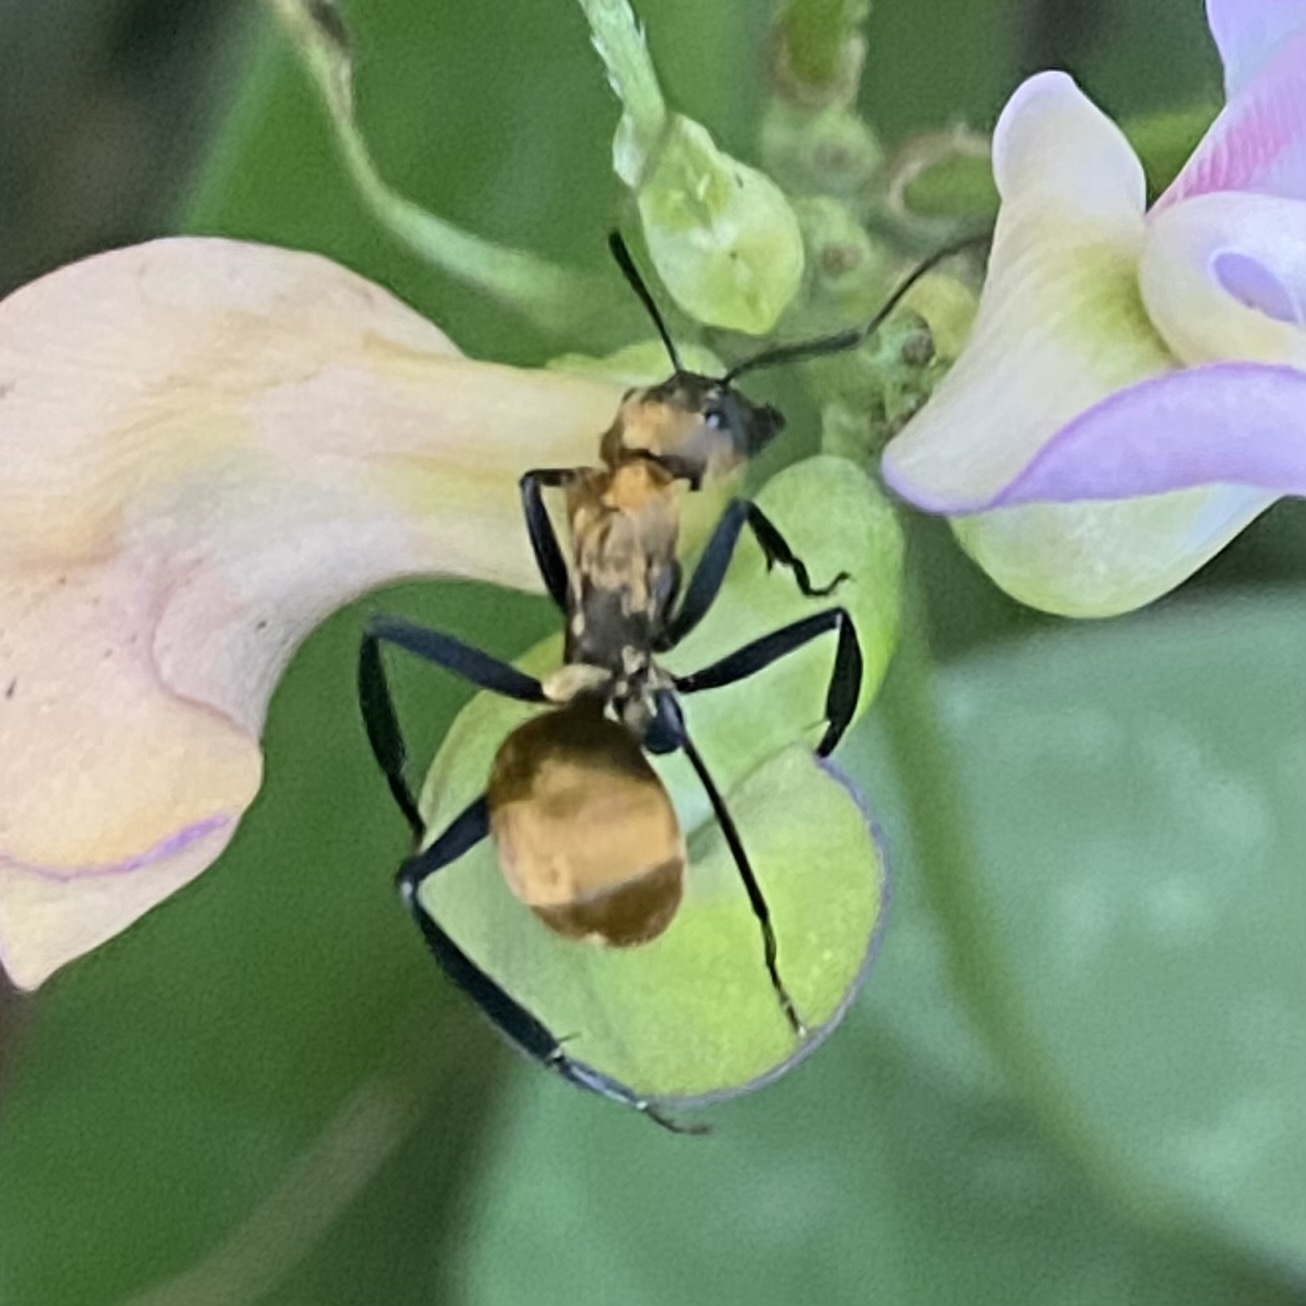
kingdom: Animalia
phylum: Arthropoda
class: Insecta
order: Hymenoptera
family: Formicidae
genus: Camponotus
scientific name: Camponotus sericeiventris
